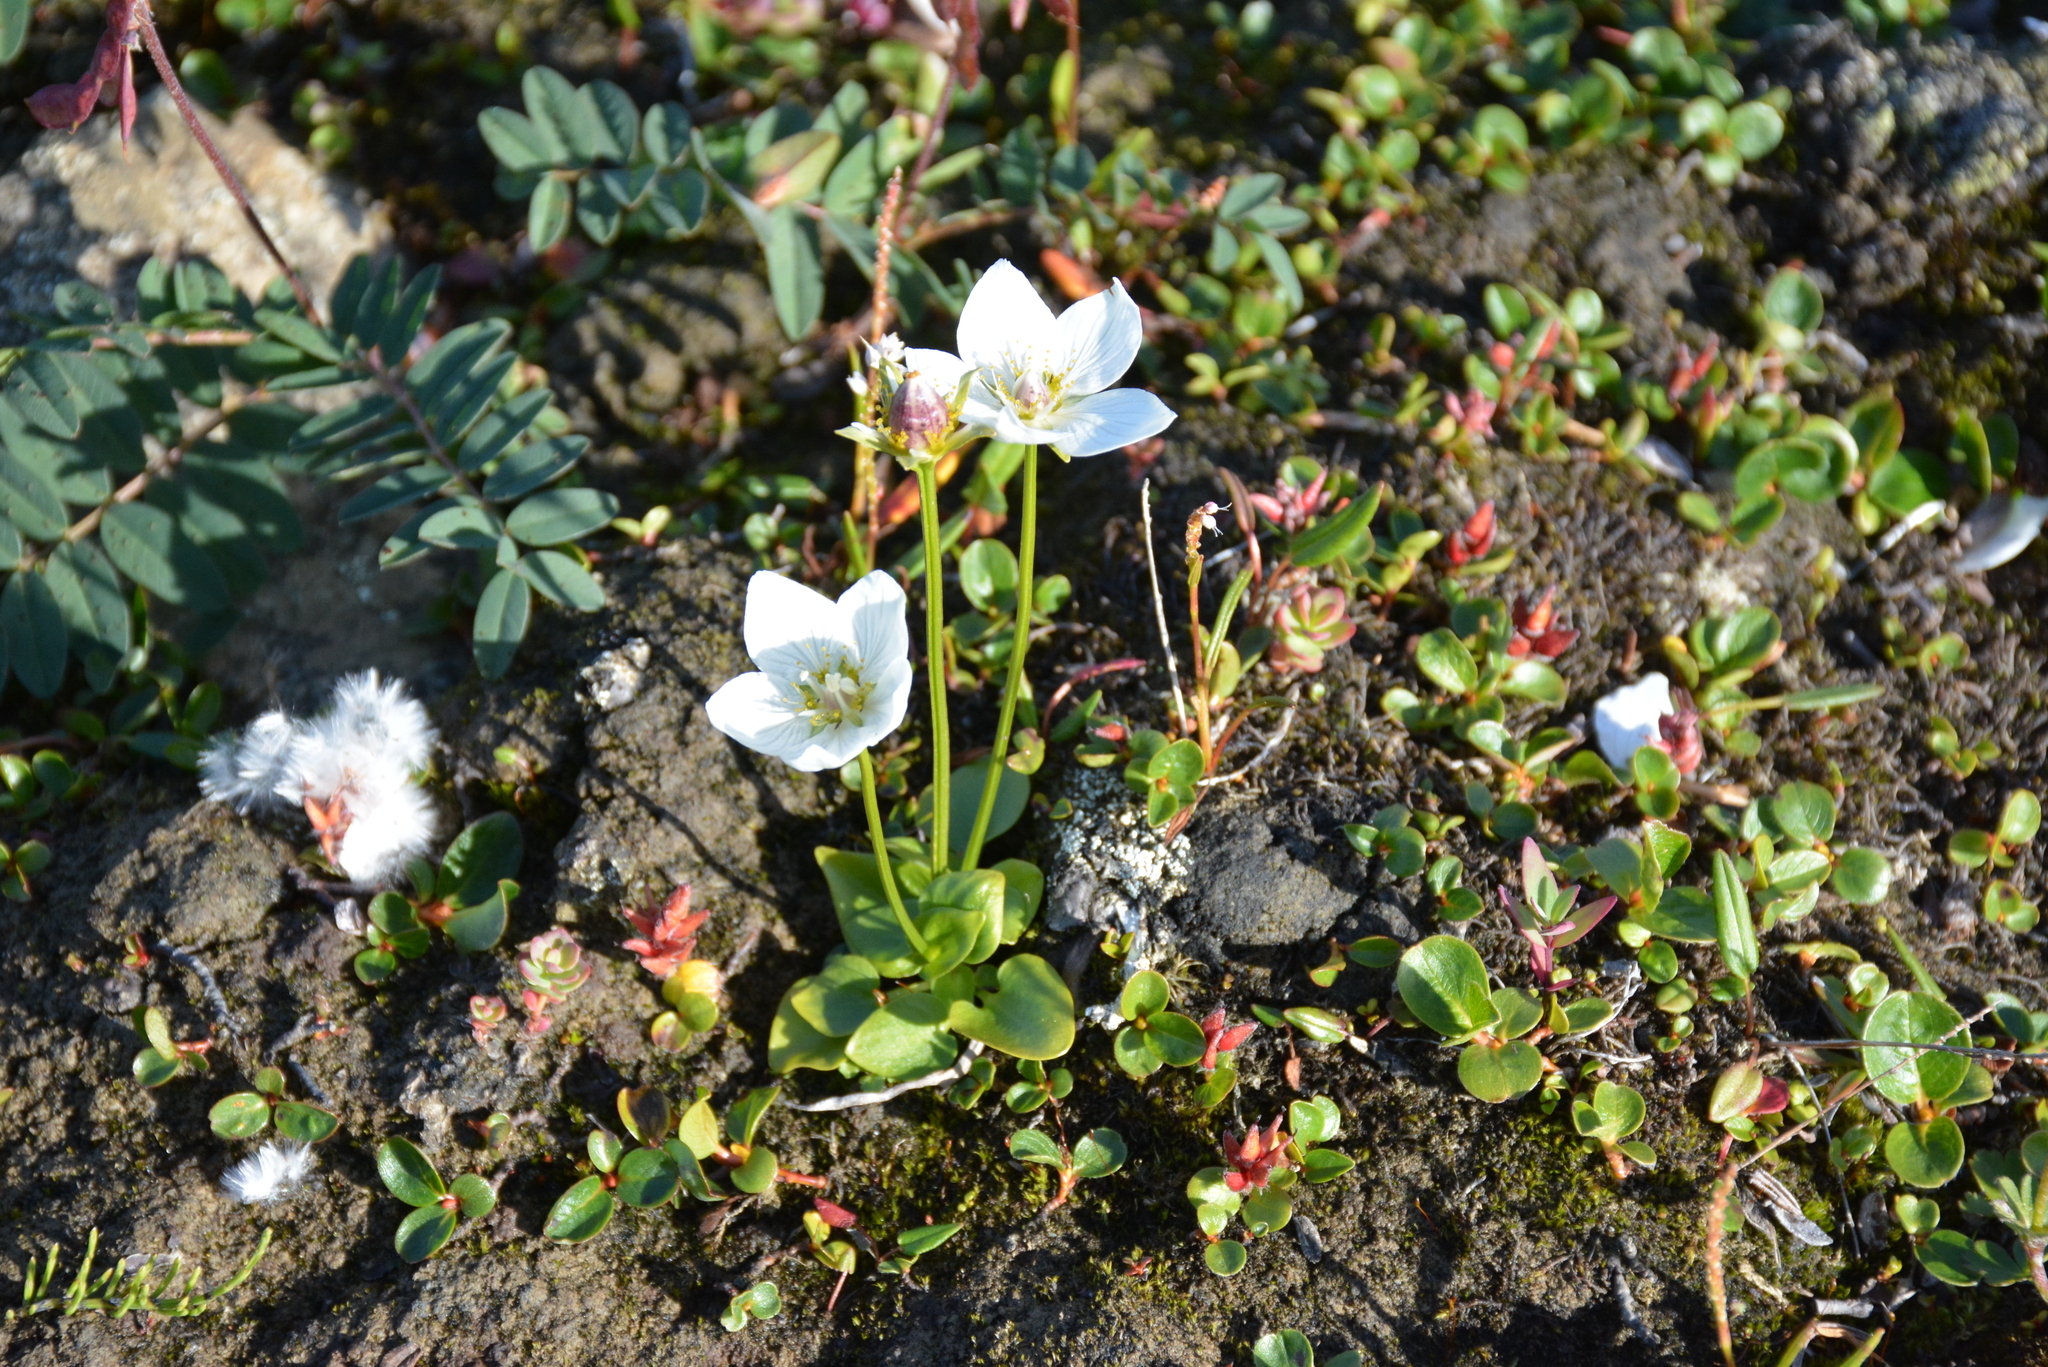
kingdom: Plantae
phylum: Tracheophyta
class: Magnoliopsida
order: Celastrales
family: Parnassiaceae
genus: Parnassia
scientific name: Parnassia palustris
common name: Grass-of-parnassus
